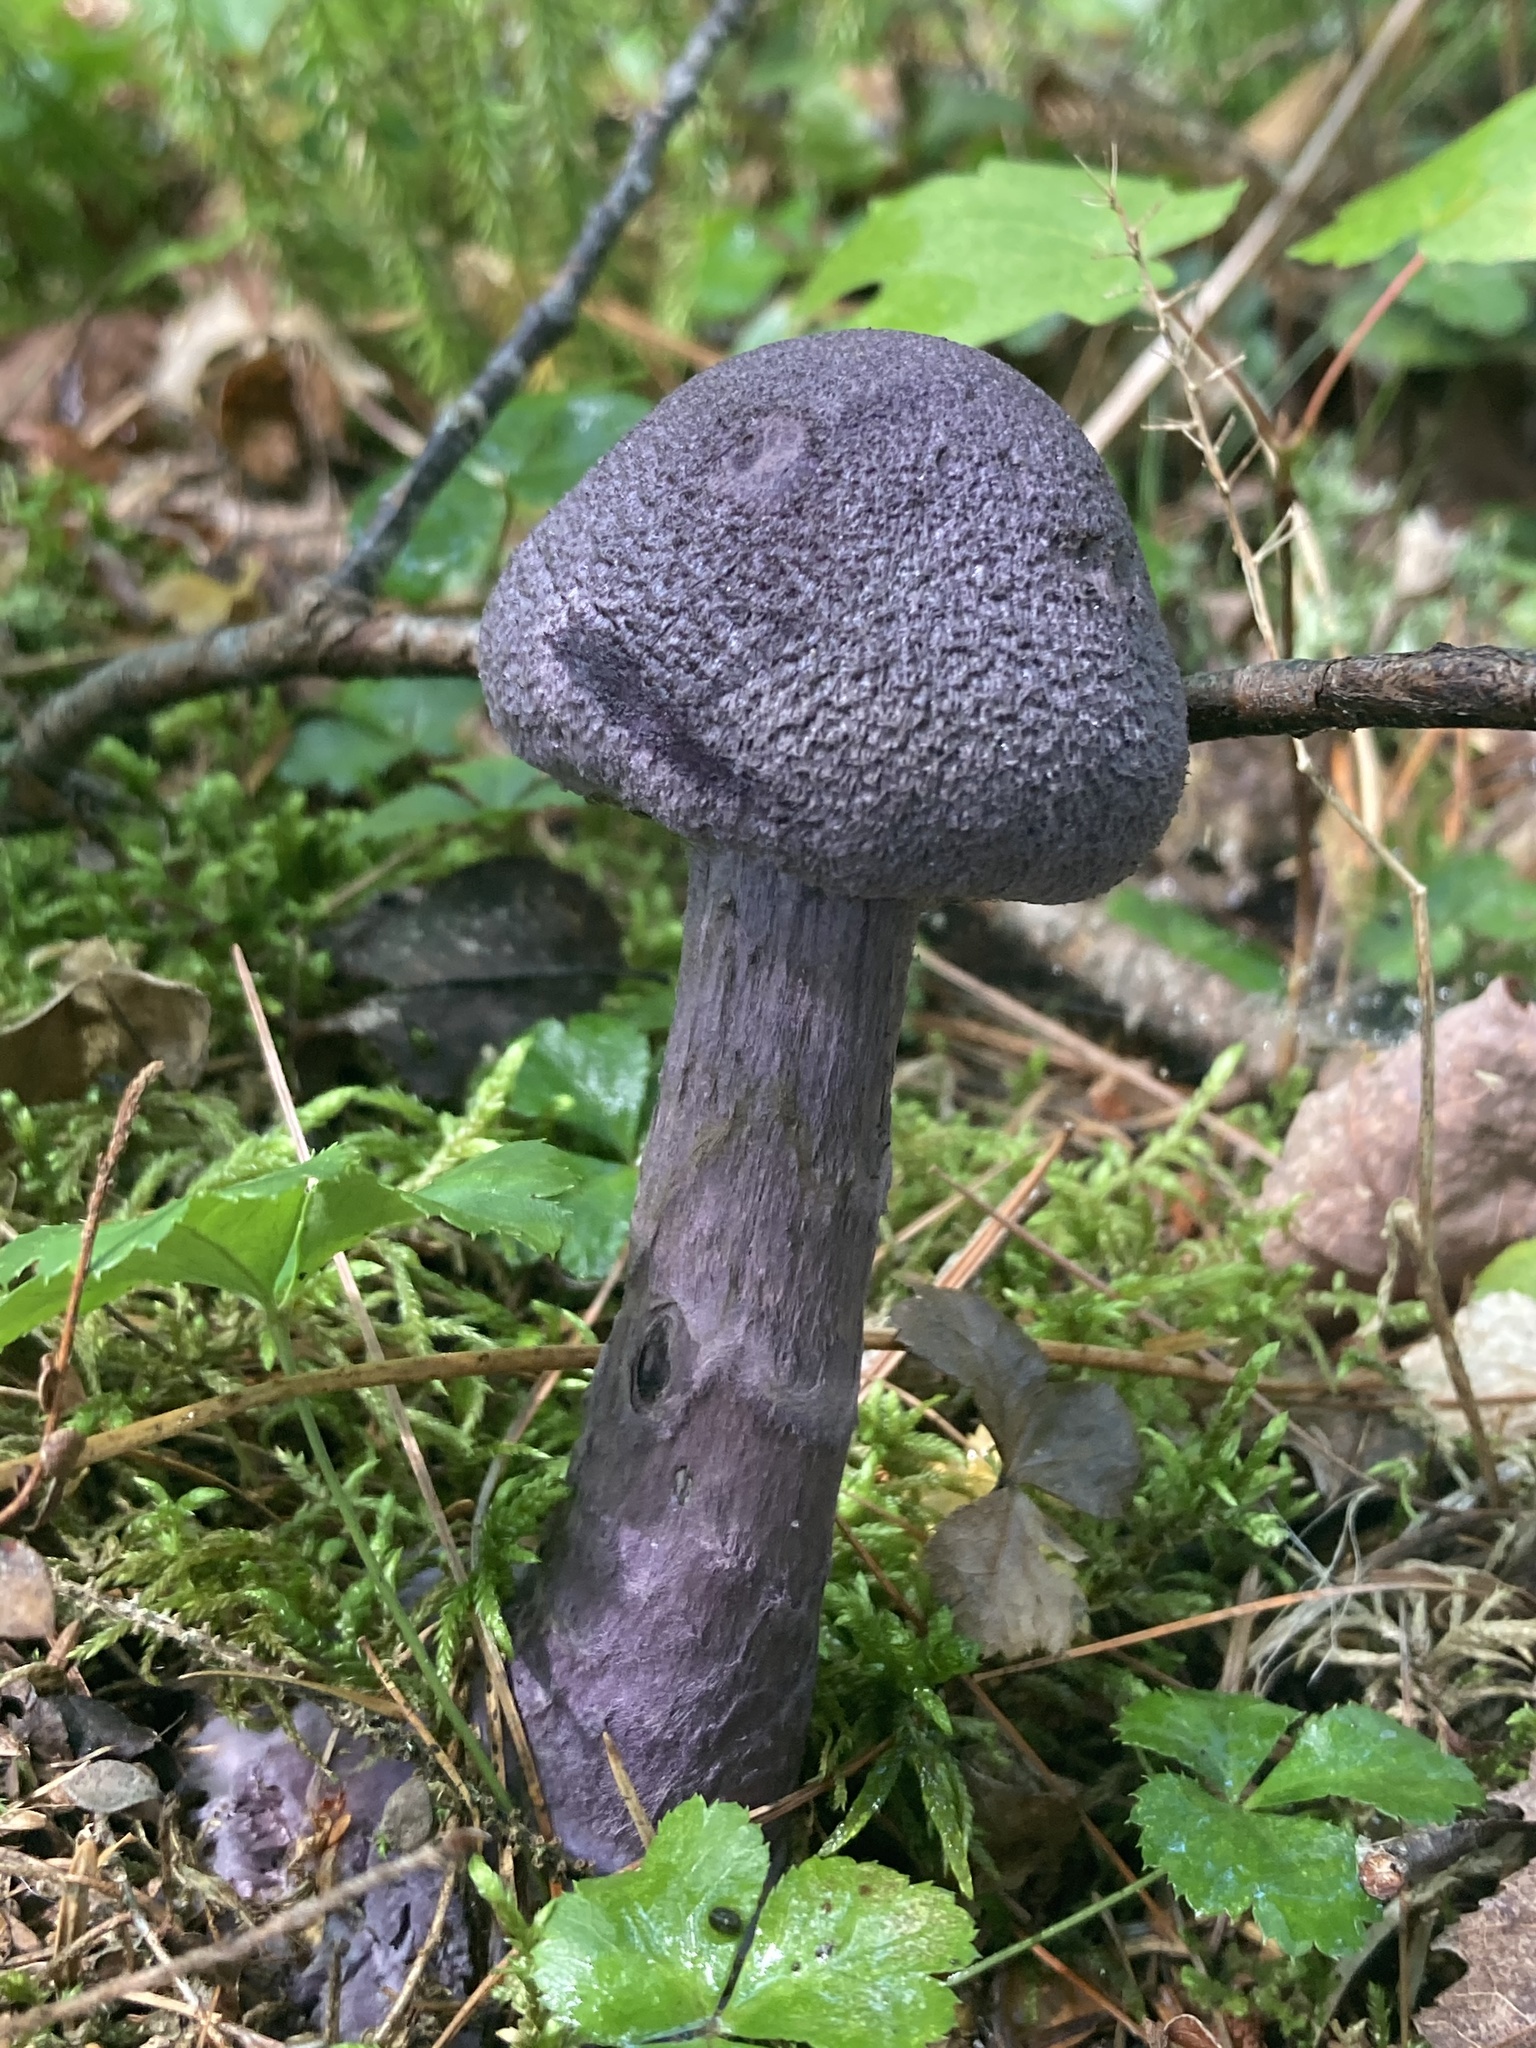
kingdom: Fungi
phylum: Basidiomycota
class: Agaricomycetes
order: Agaricales
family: Cortinariaceae
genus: Cortinarius
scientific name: Cortinarius violaceus
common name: Violet webcap
